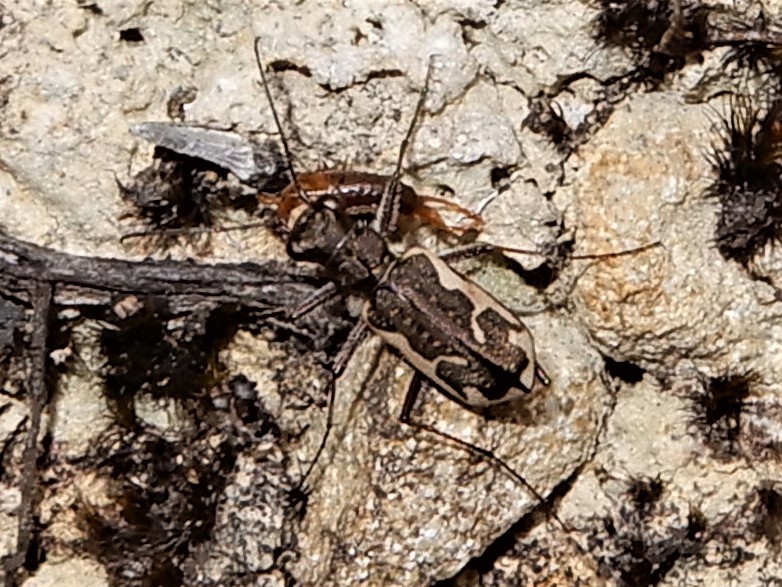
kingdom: Animalia
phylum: Arthropoda
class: Insecta
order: Coleoptera
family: Carabidae
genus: Neocicindela
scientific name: Neocicindela tuberculata
